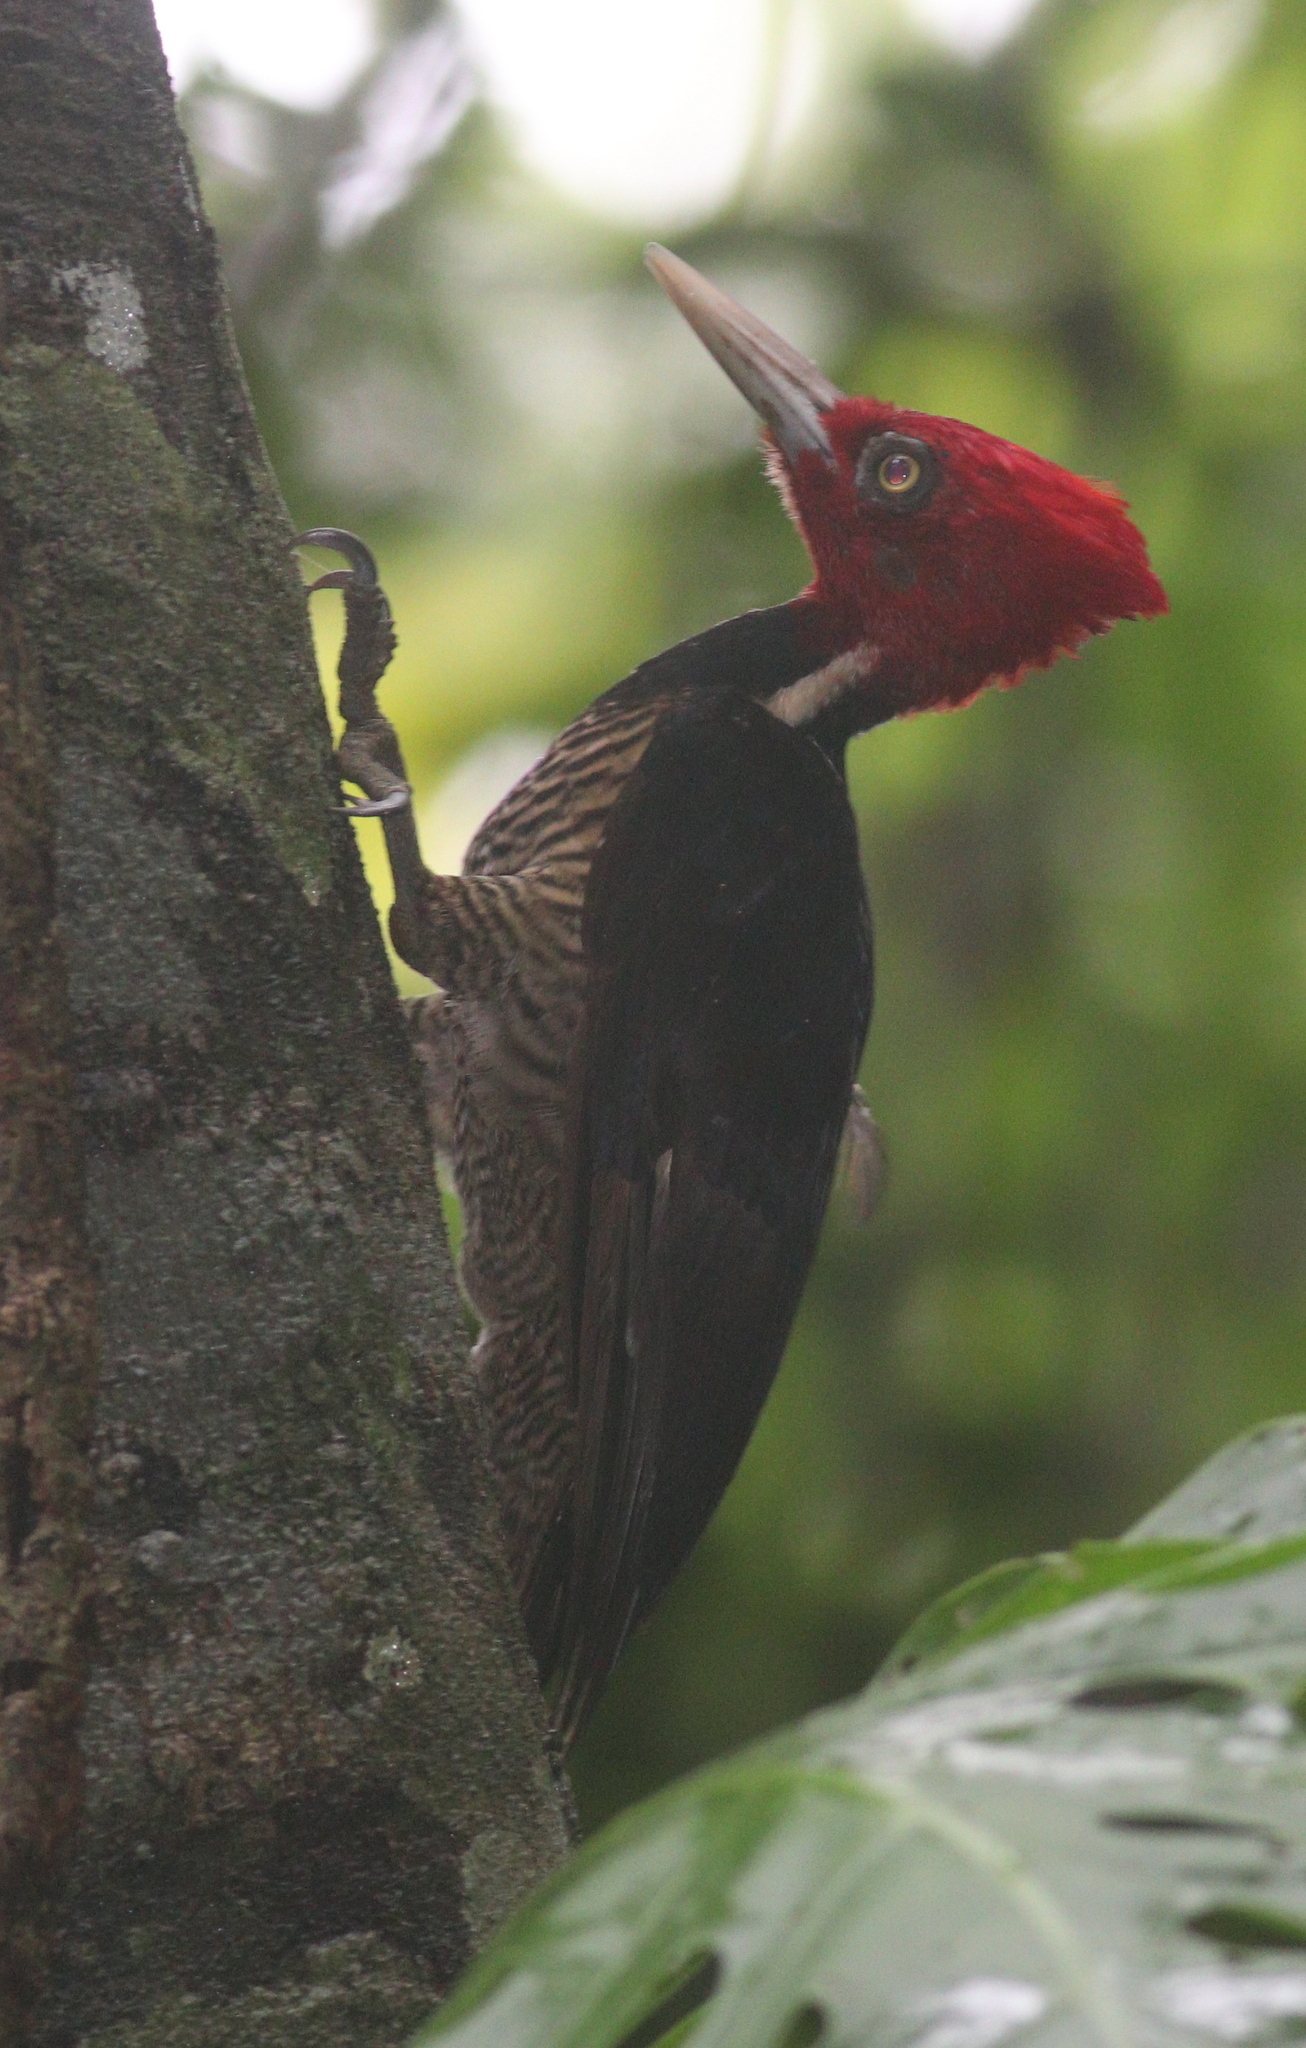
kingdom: Animalia
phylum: Chordata
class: Aves
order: Piciformes
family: Picidae
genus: Campephilus
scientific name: Campephilus guatemalensis
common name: Pale-billed woodpecker
